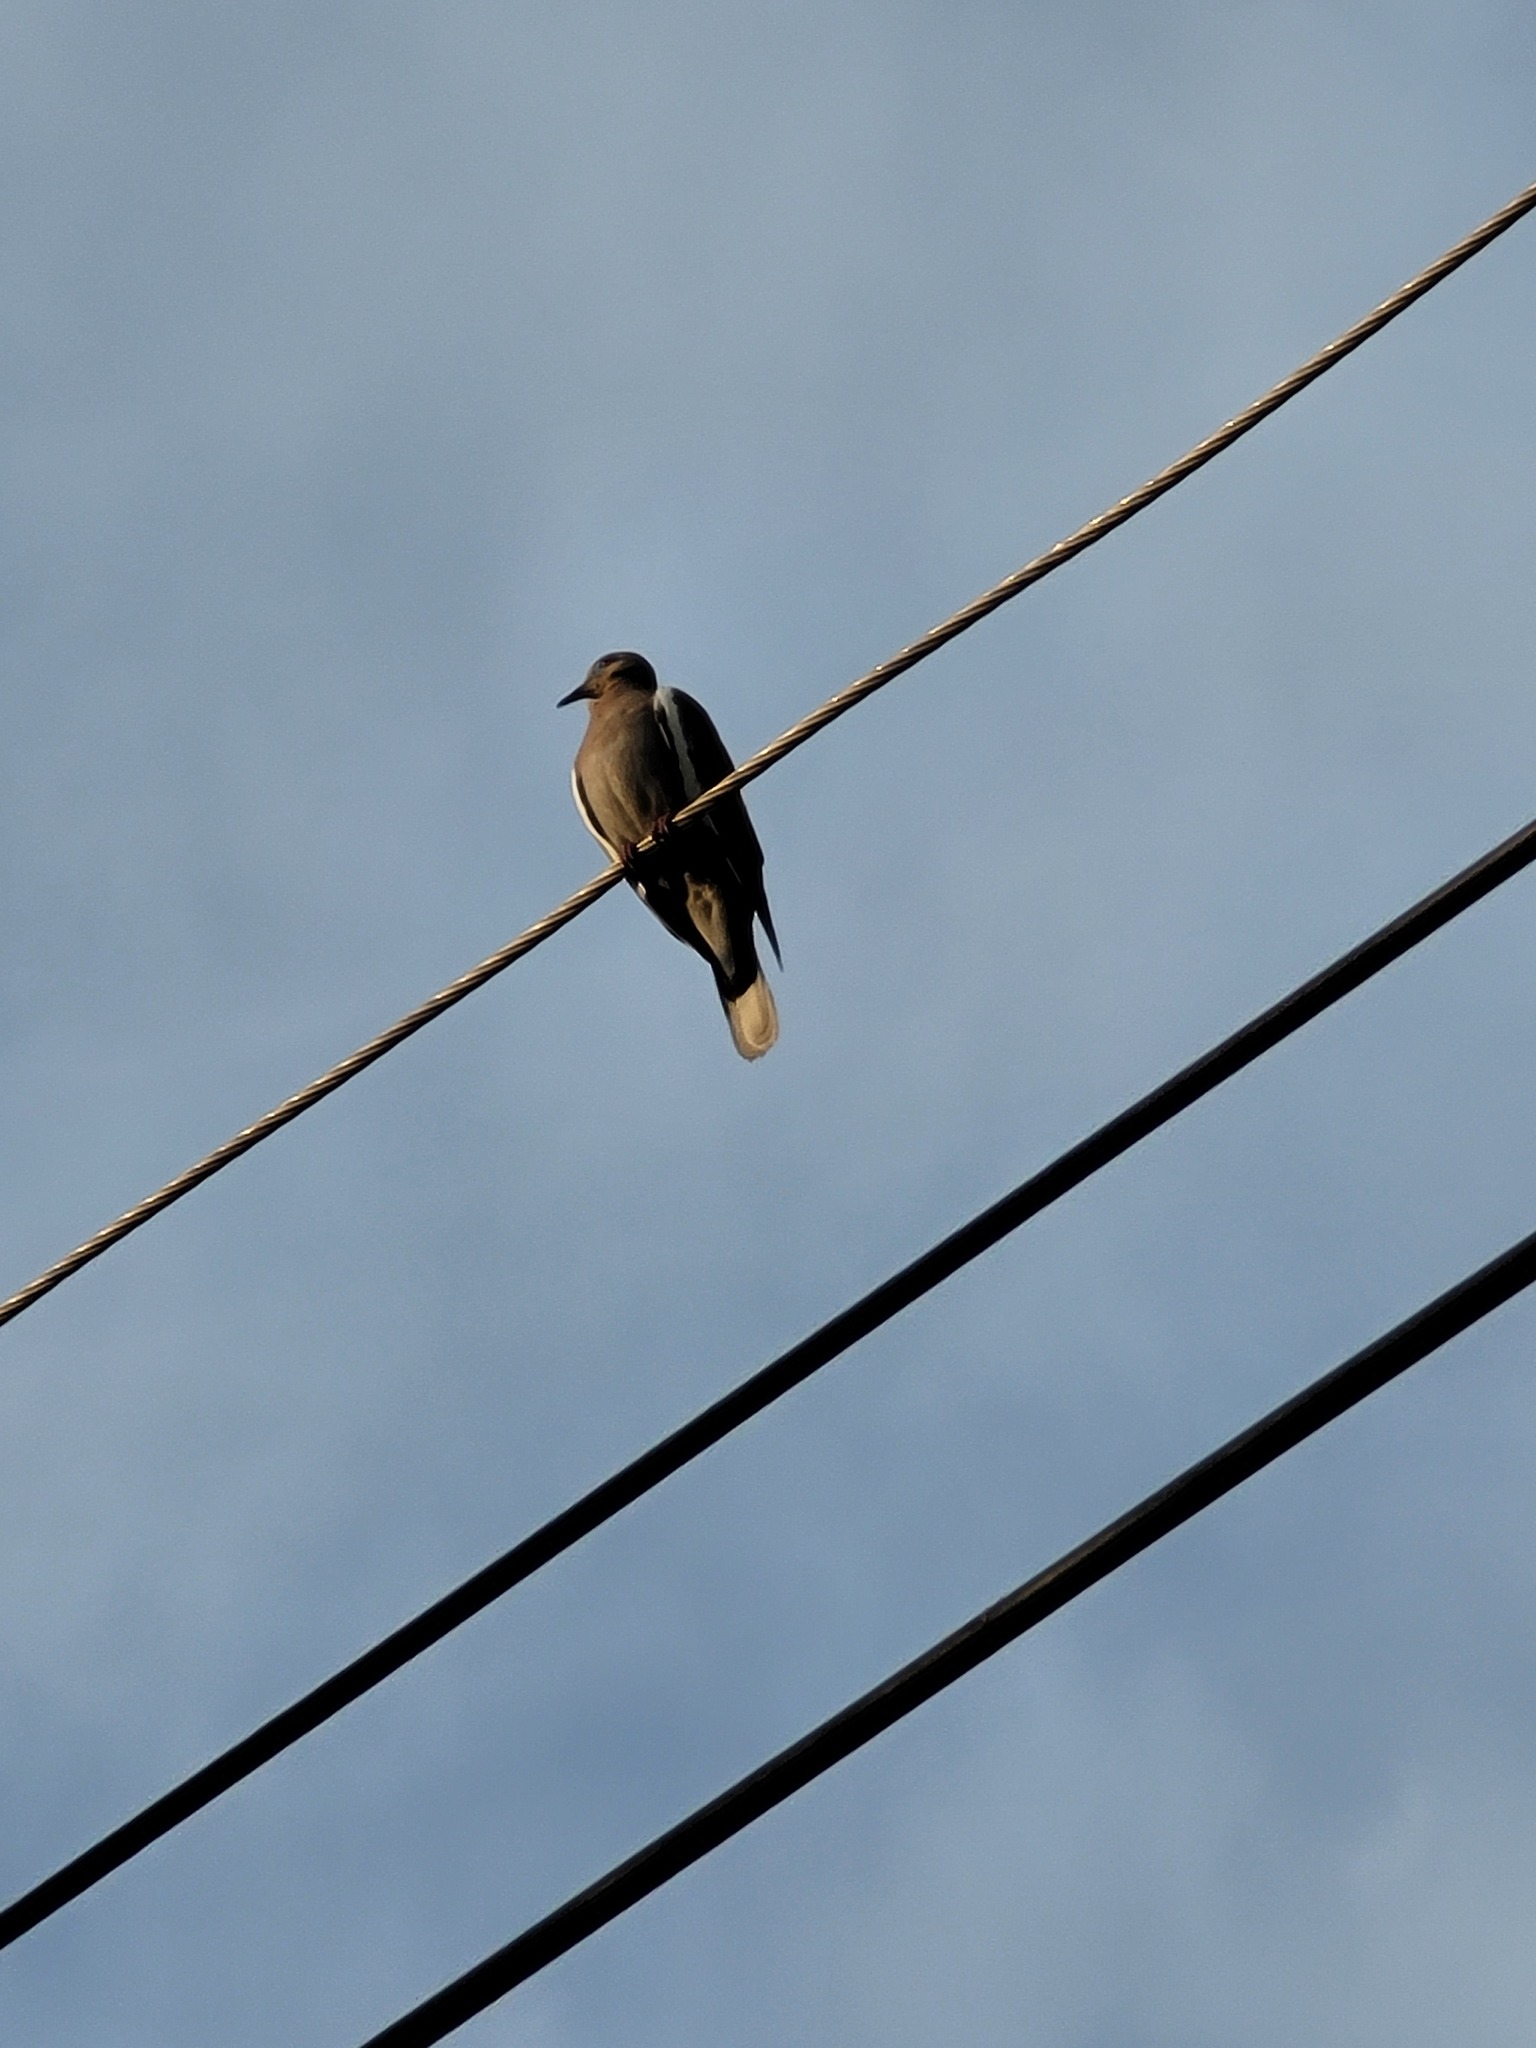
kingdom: Animalia
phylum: Chordata
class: Aves
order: Columbiformes
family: Columbidae
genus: Zenaida
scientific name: Zenaida asiatica
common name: White-winged dove
